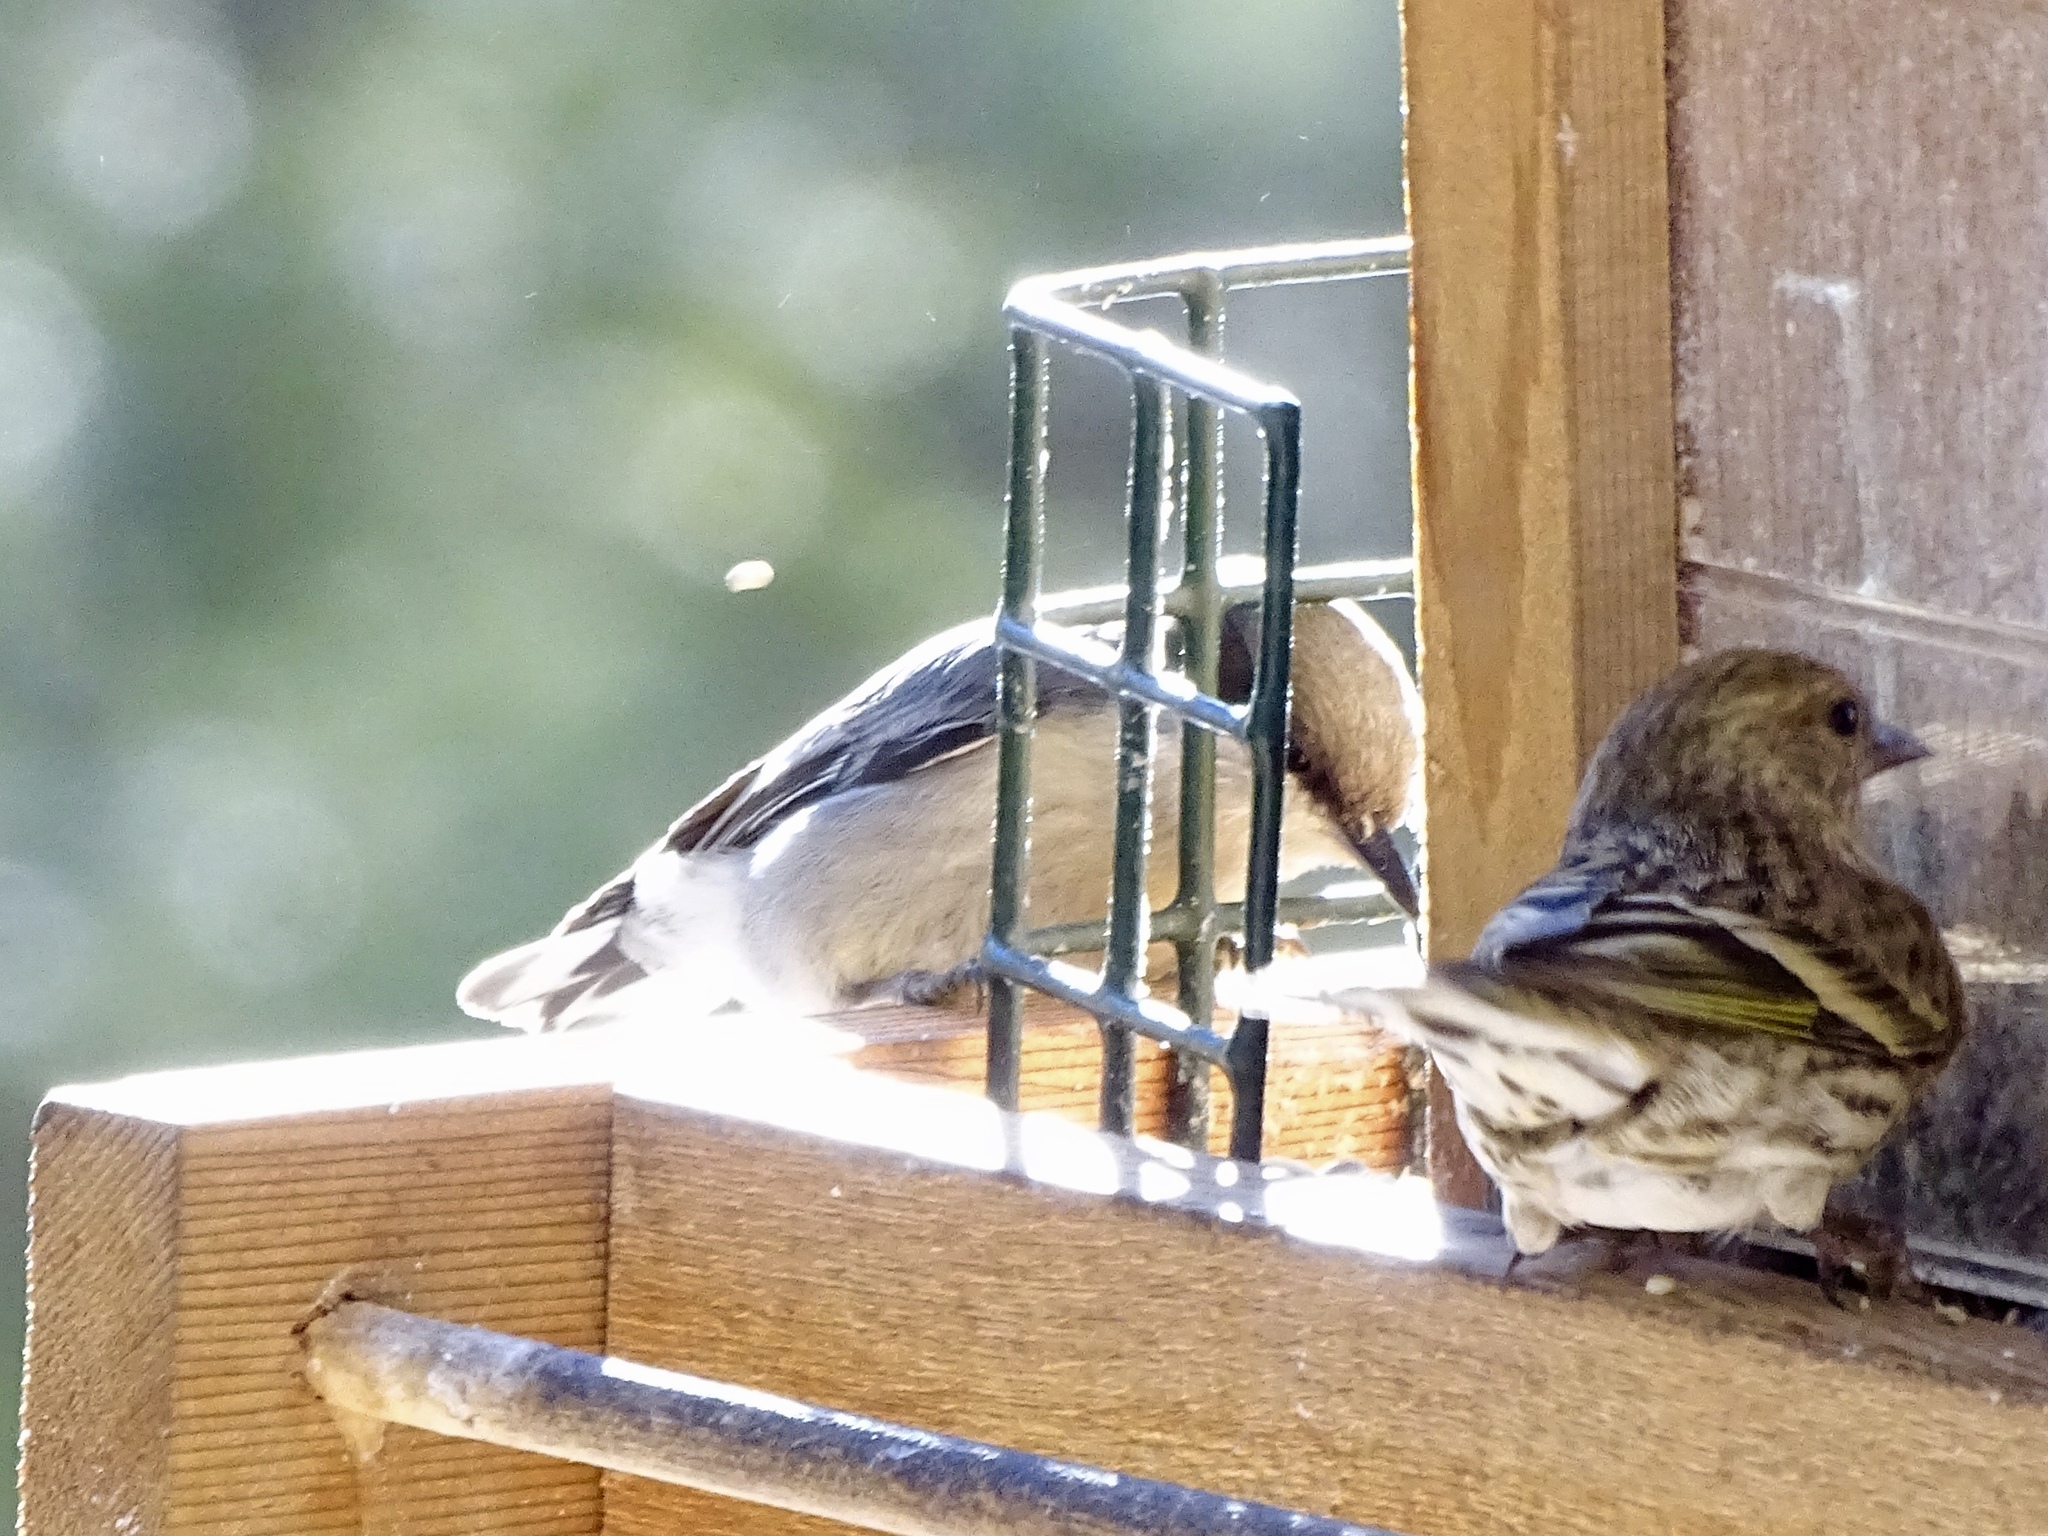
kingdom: Animalia
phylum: Chordata
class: Aves
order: Passeriformes
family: Sittidae
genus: Sitta
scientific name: Sitta pygmaea
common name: Pygmy nuthatch
